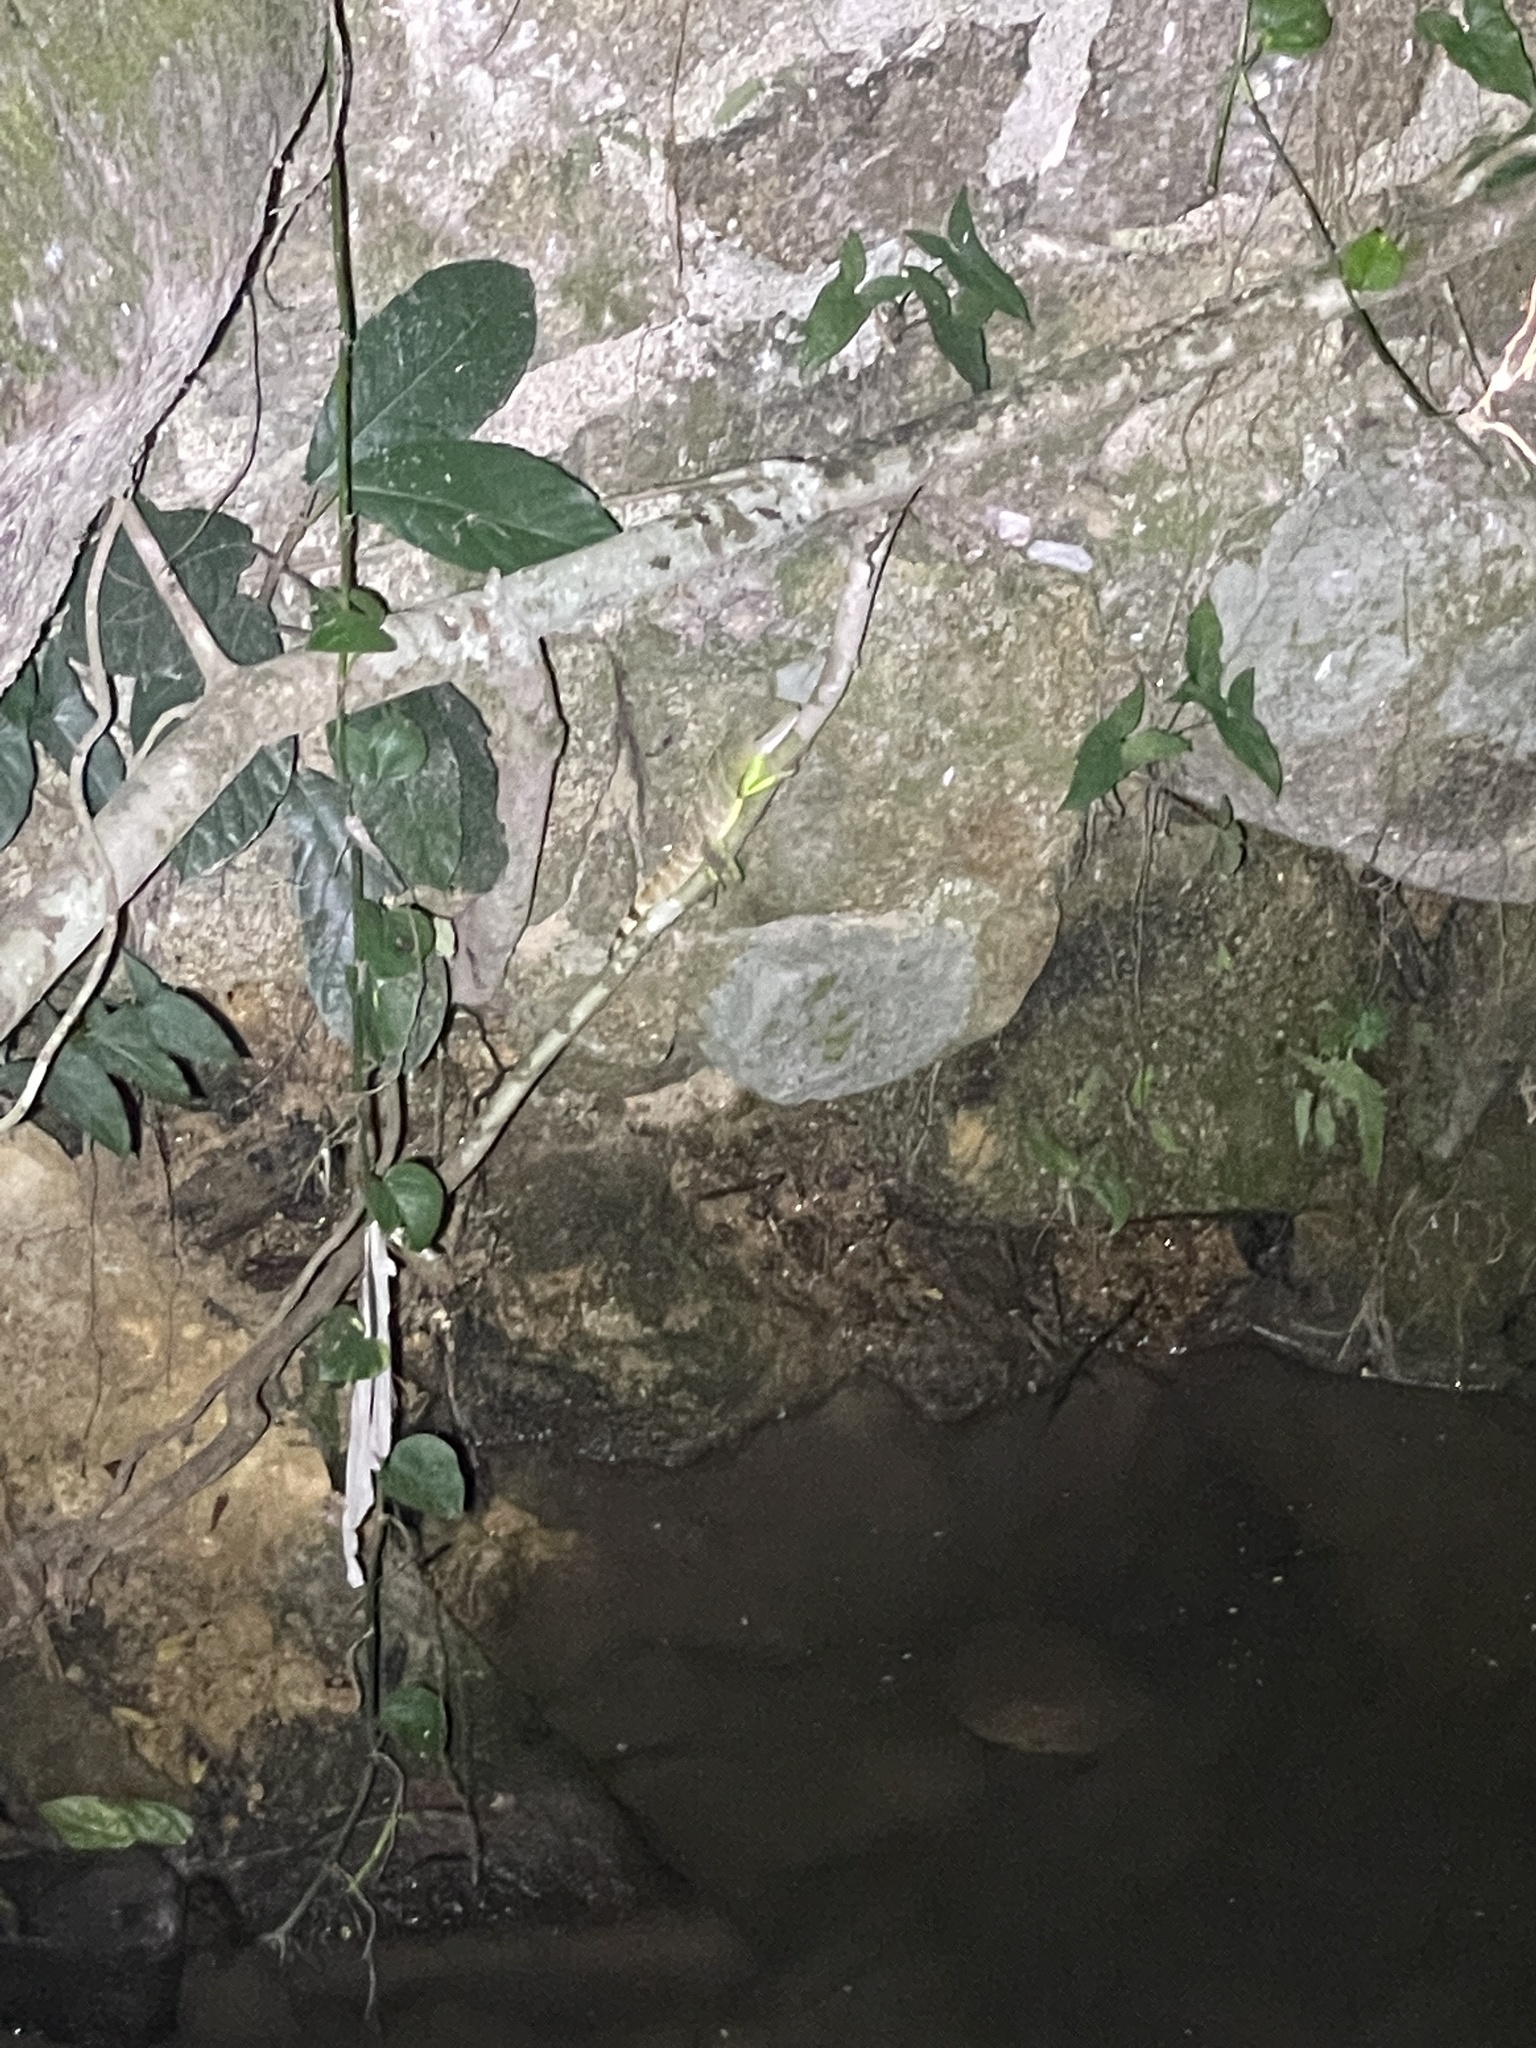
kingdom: Animalia
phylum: Chordata
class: Squamata
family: Agamidae
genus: Physignathus
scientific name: Physignathus cocincinus
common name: Asian water dragon
